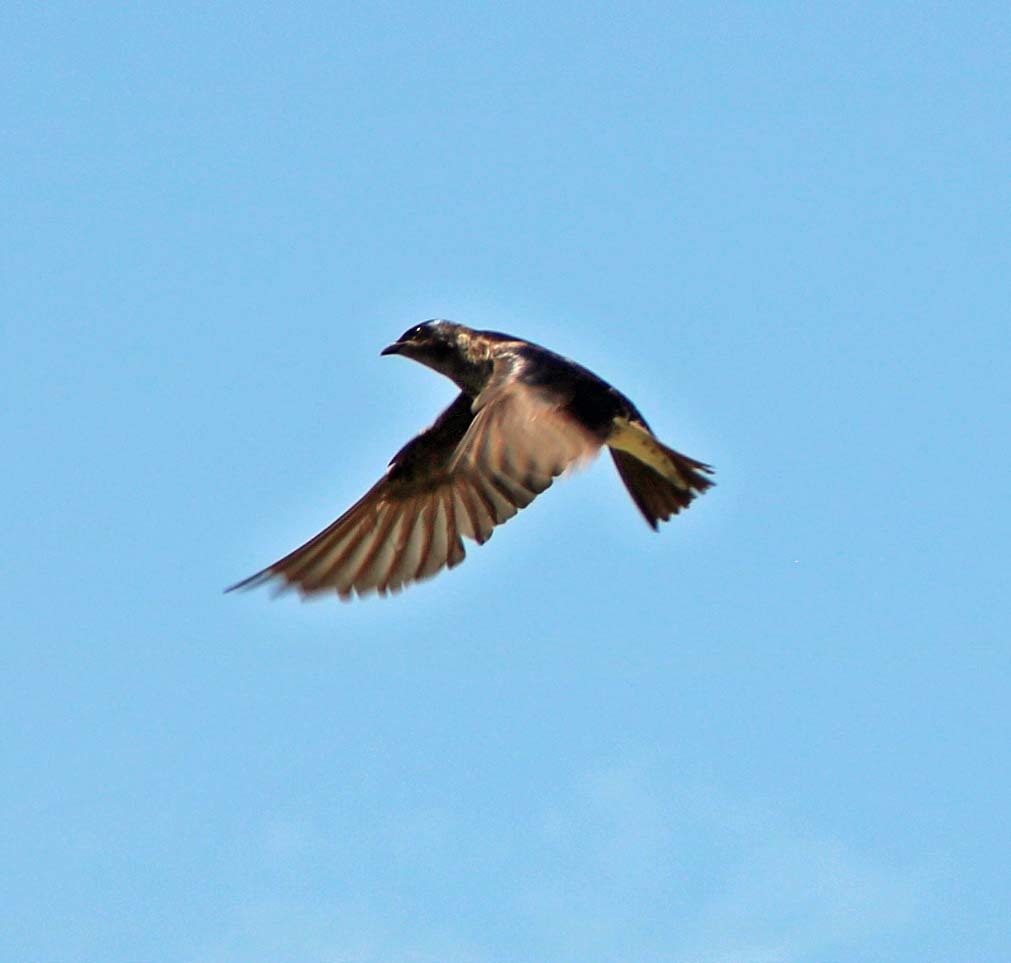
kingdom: Animalia
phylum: Chordata
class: Aves
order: Passeriformes
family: Hirundinidae
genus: Progne
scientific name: Progne subis
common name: Purple martin
